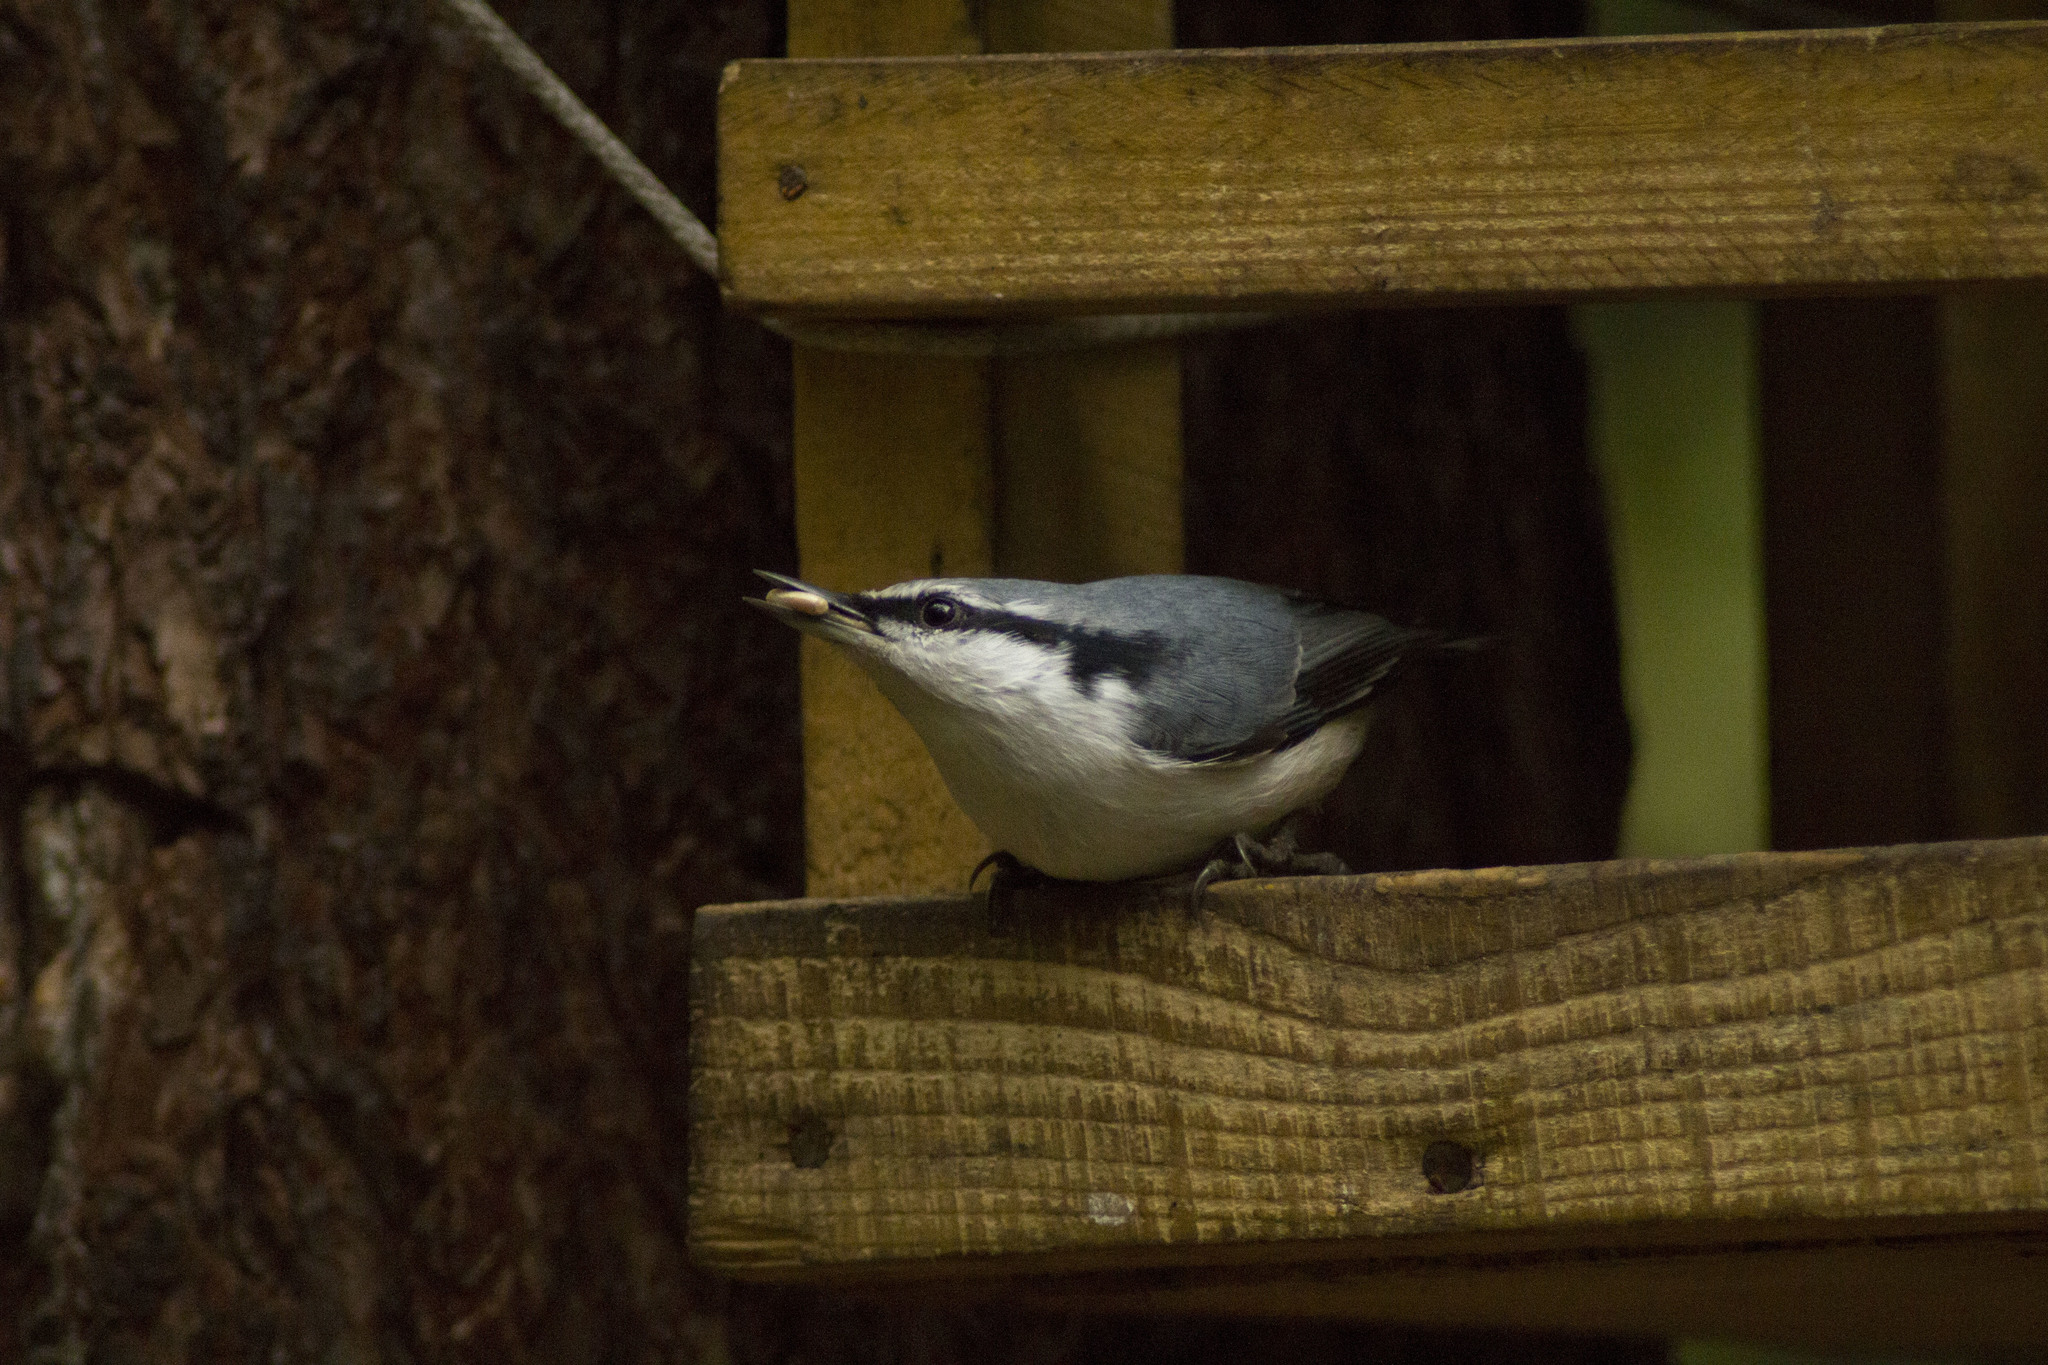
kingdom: Animalia
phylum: Chordata
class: Aves
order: Passeriformes
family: Sittidae
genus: Sitta
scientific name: Sitta europaea
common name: Eurasian nuthatch
